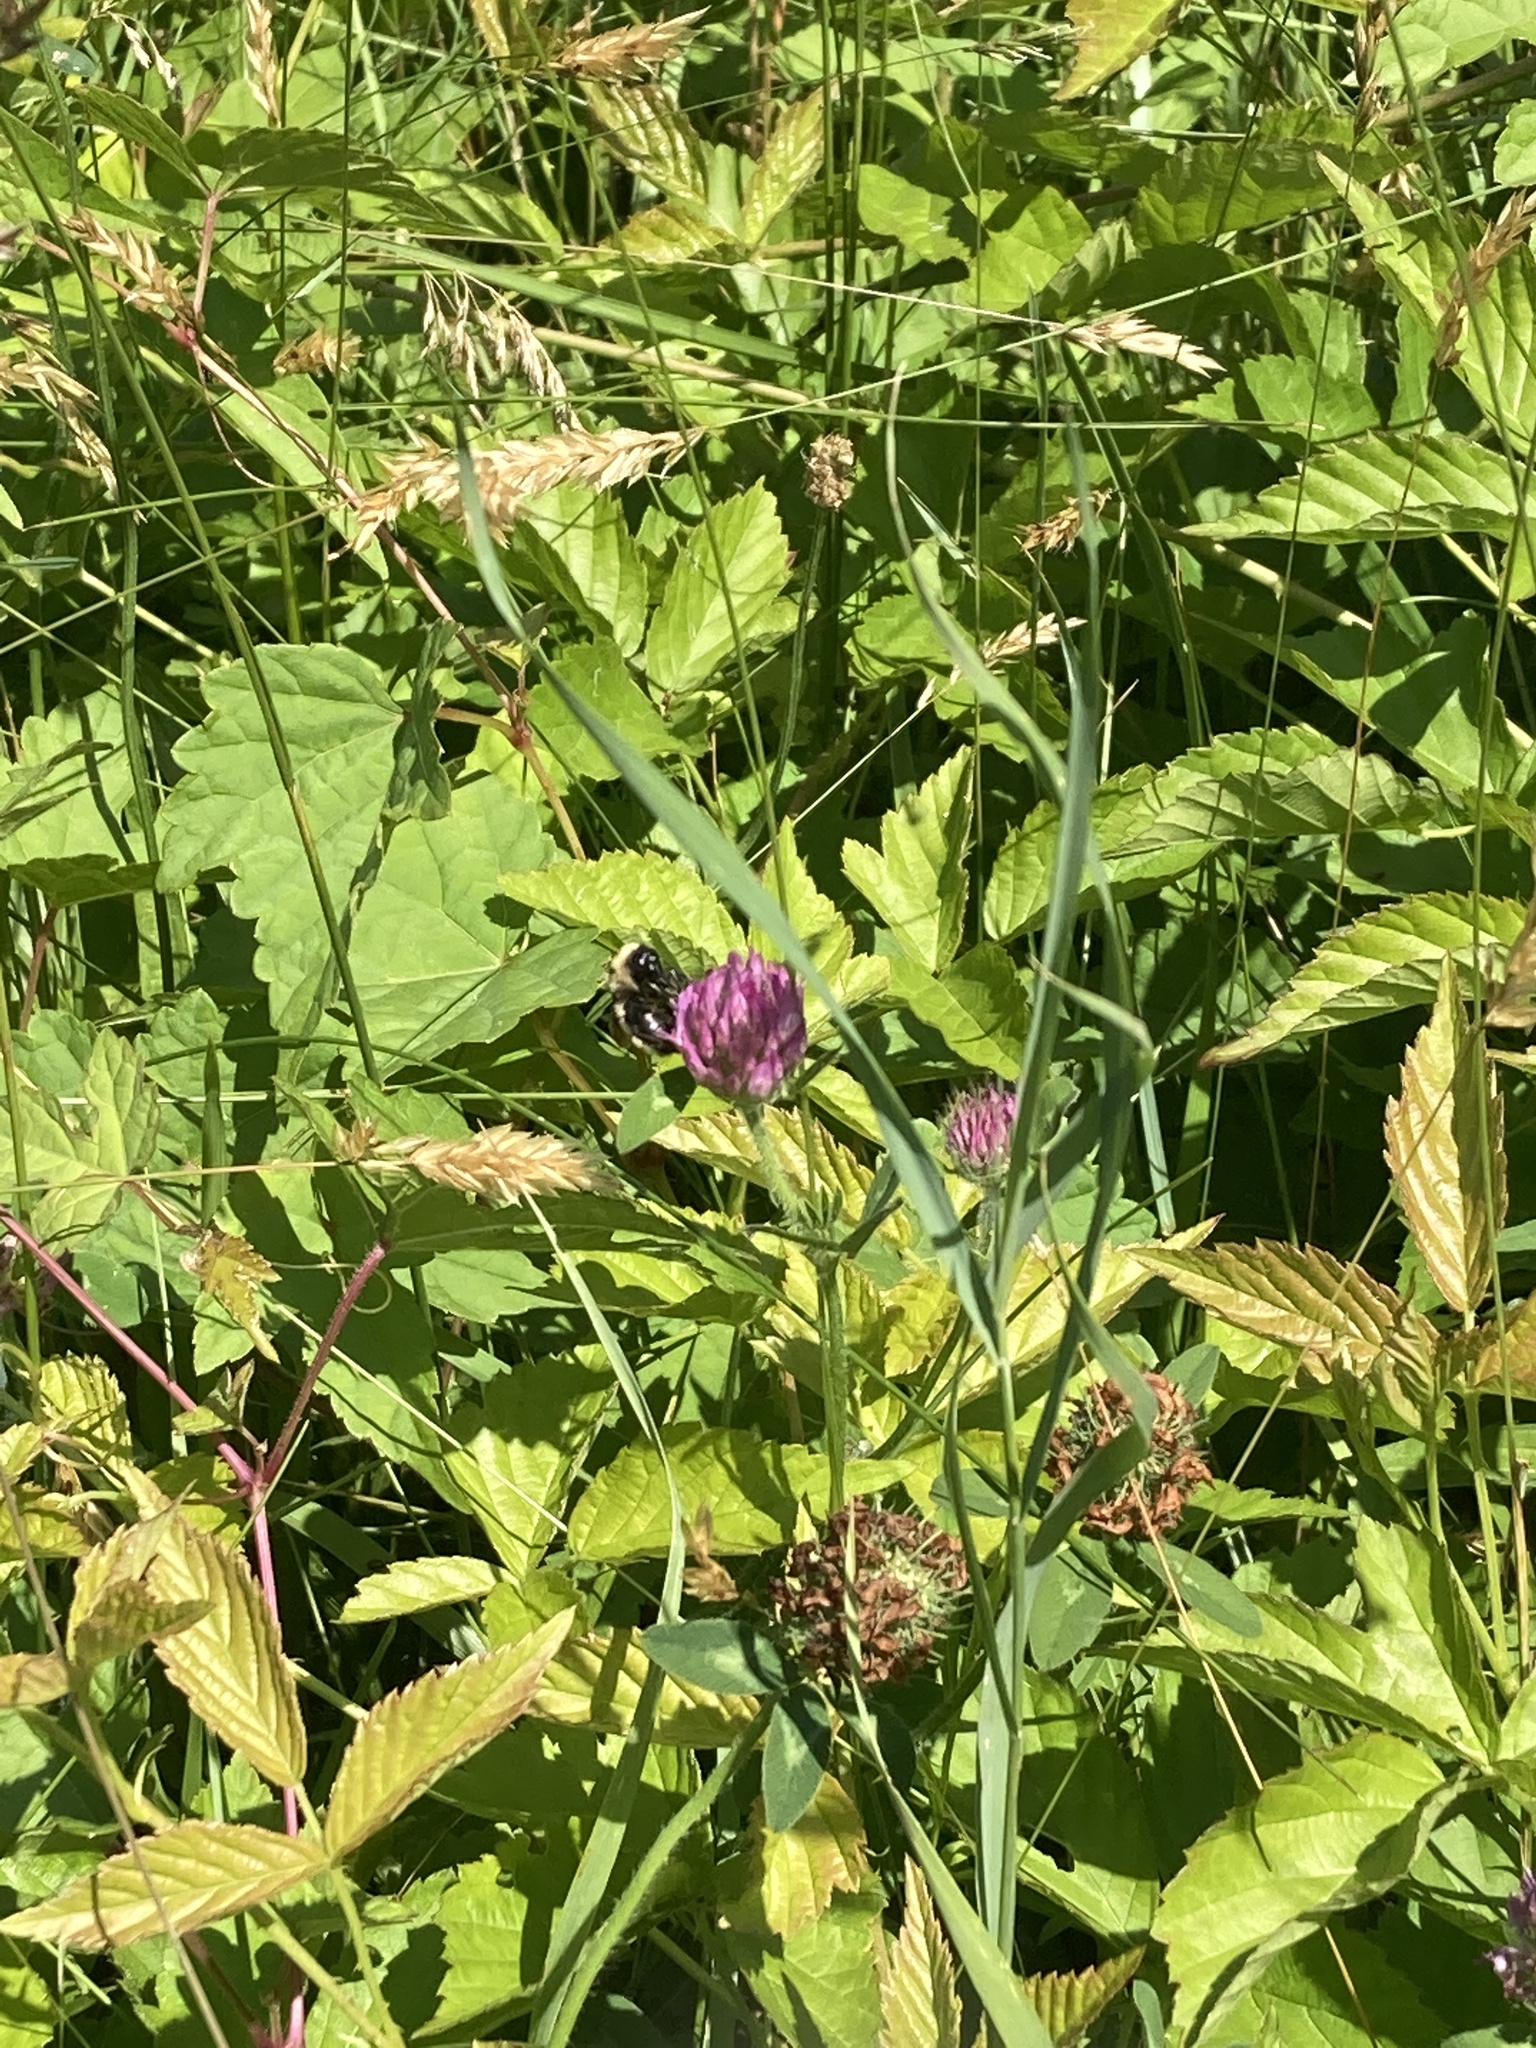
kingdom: Animalia
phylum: Arthropoda
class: Insecta
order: Hymenoptera
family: Apidae
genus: Bombus
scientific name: Bombus fervidus
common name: Yellow bumble bee
